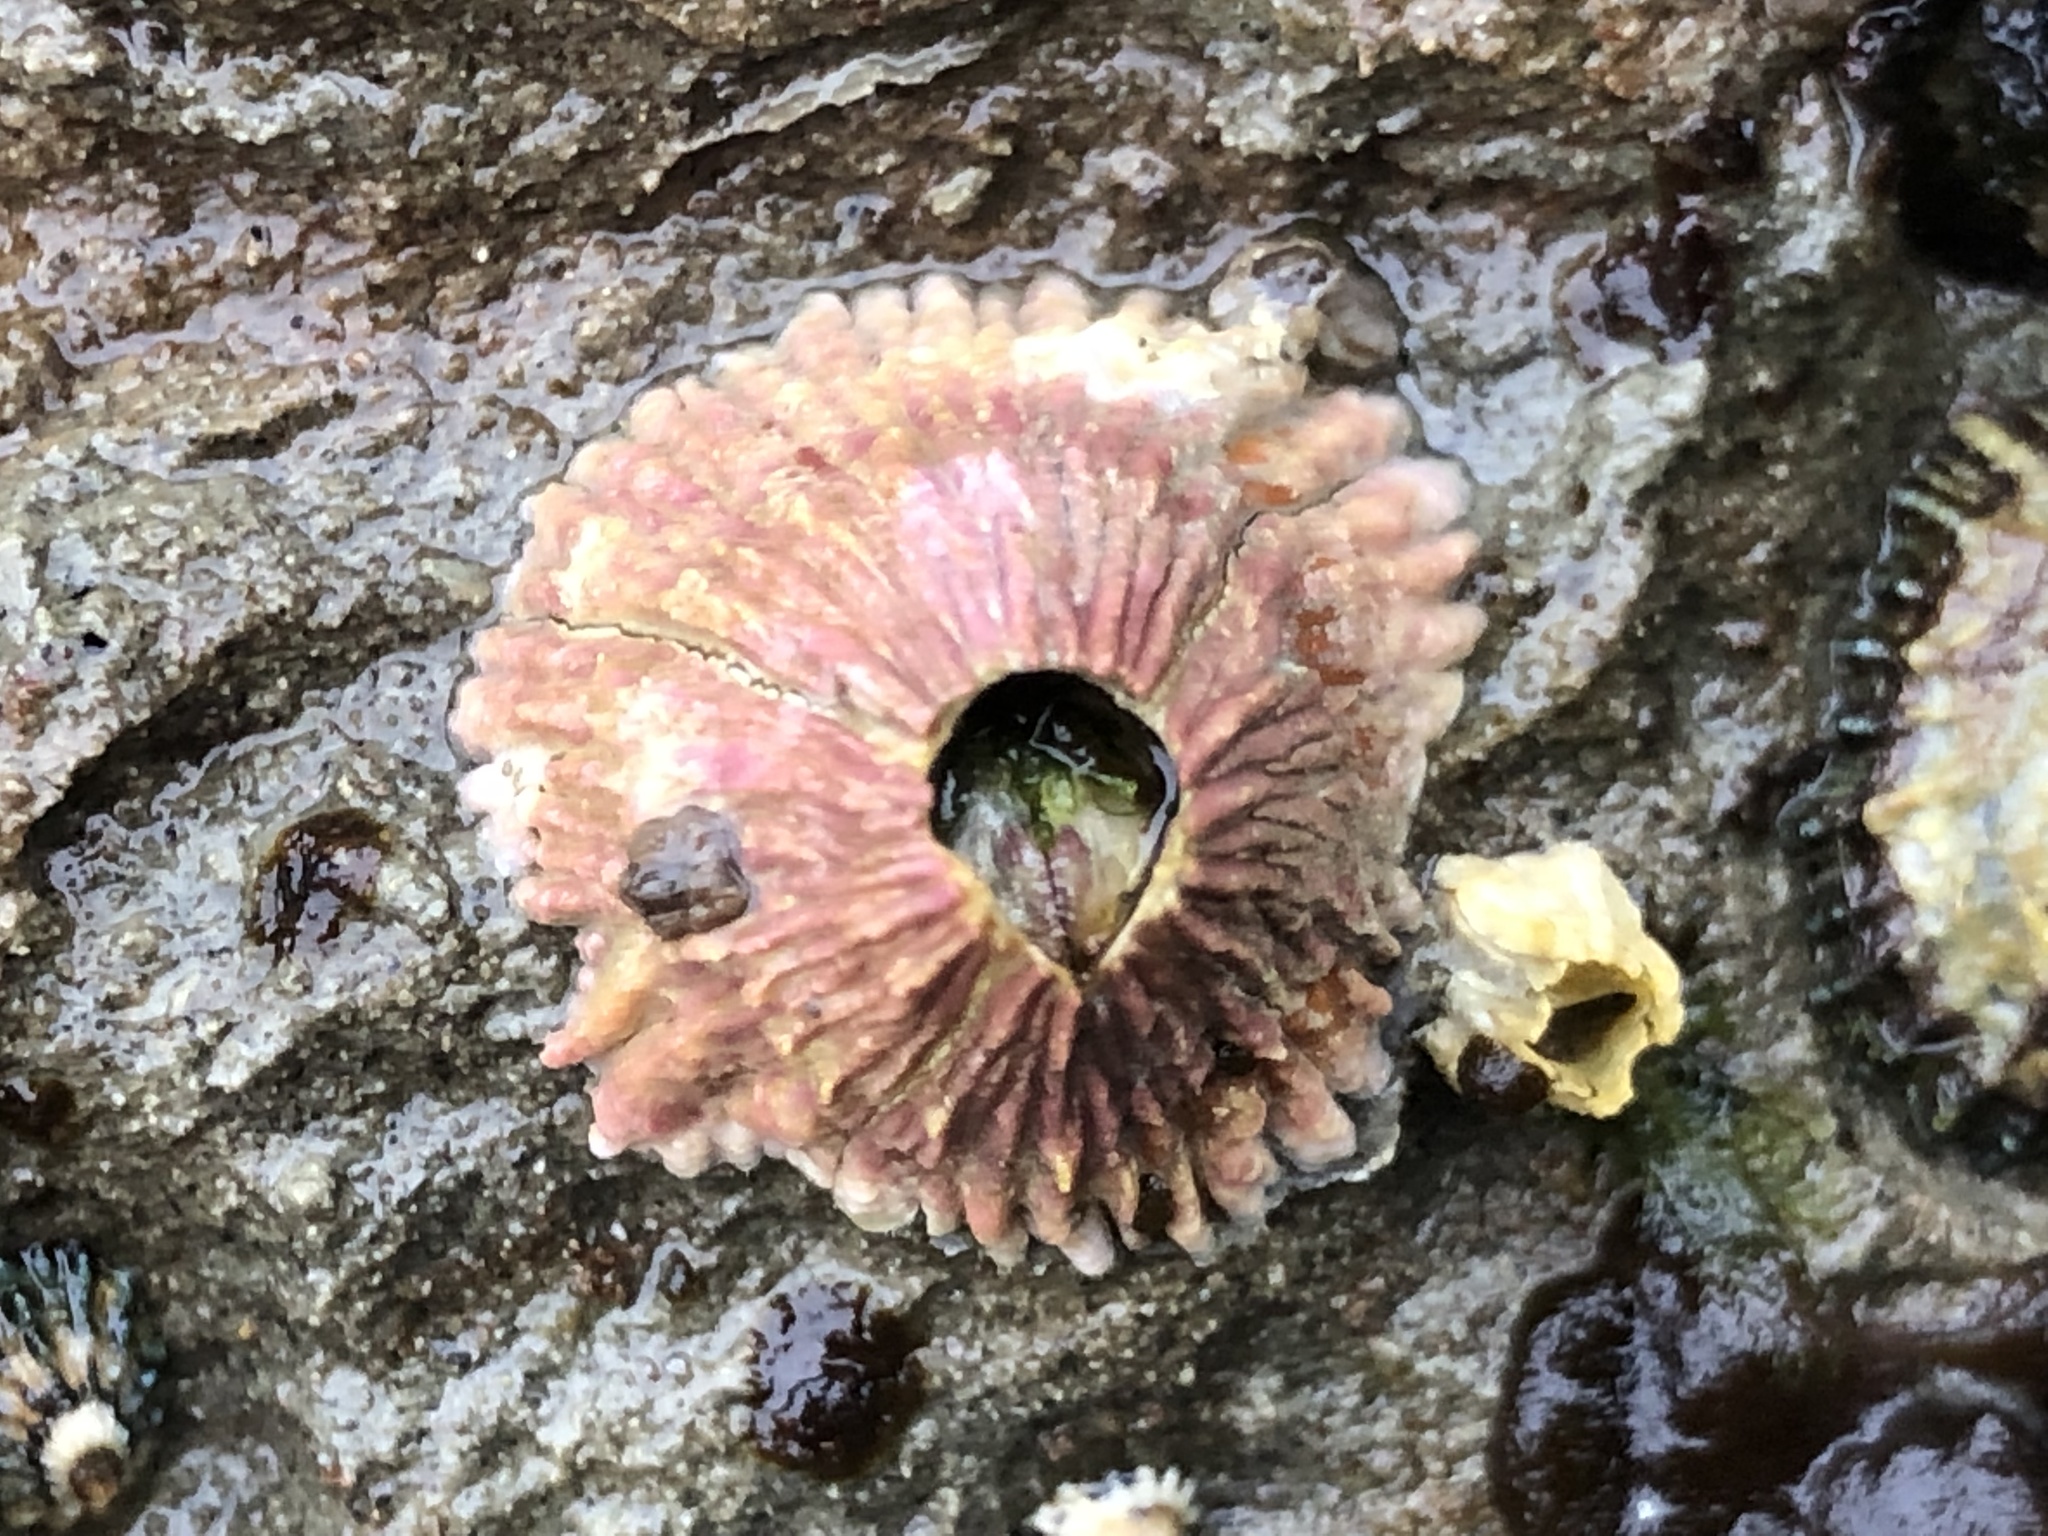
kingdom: Animalia
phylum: Arthropoda
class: Maxillopoda
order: Sessilia
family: Tetraclitidae
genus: Tetraclita
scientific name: Tetraclita rubescens
